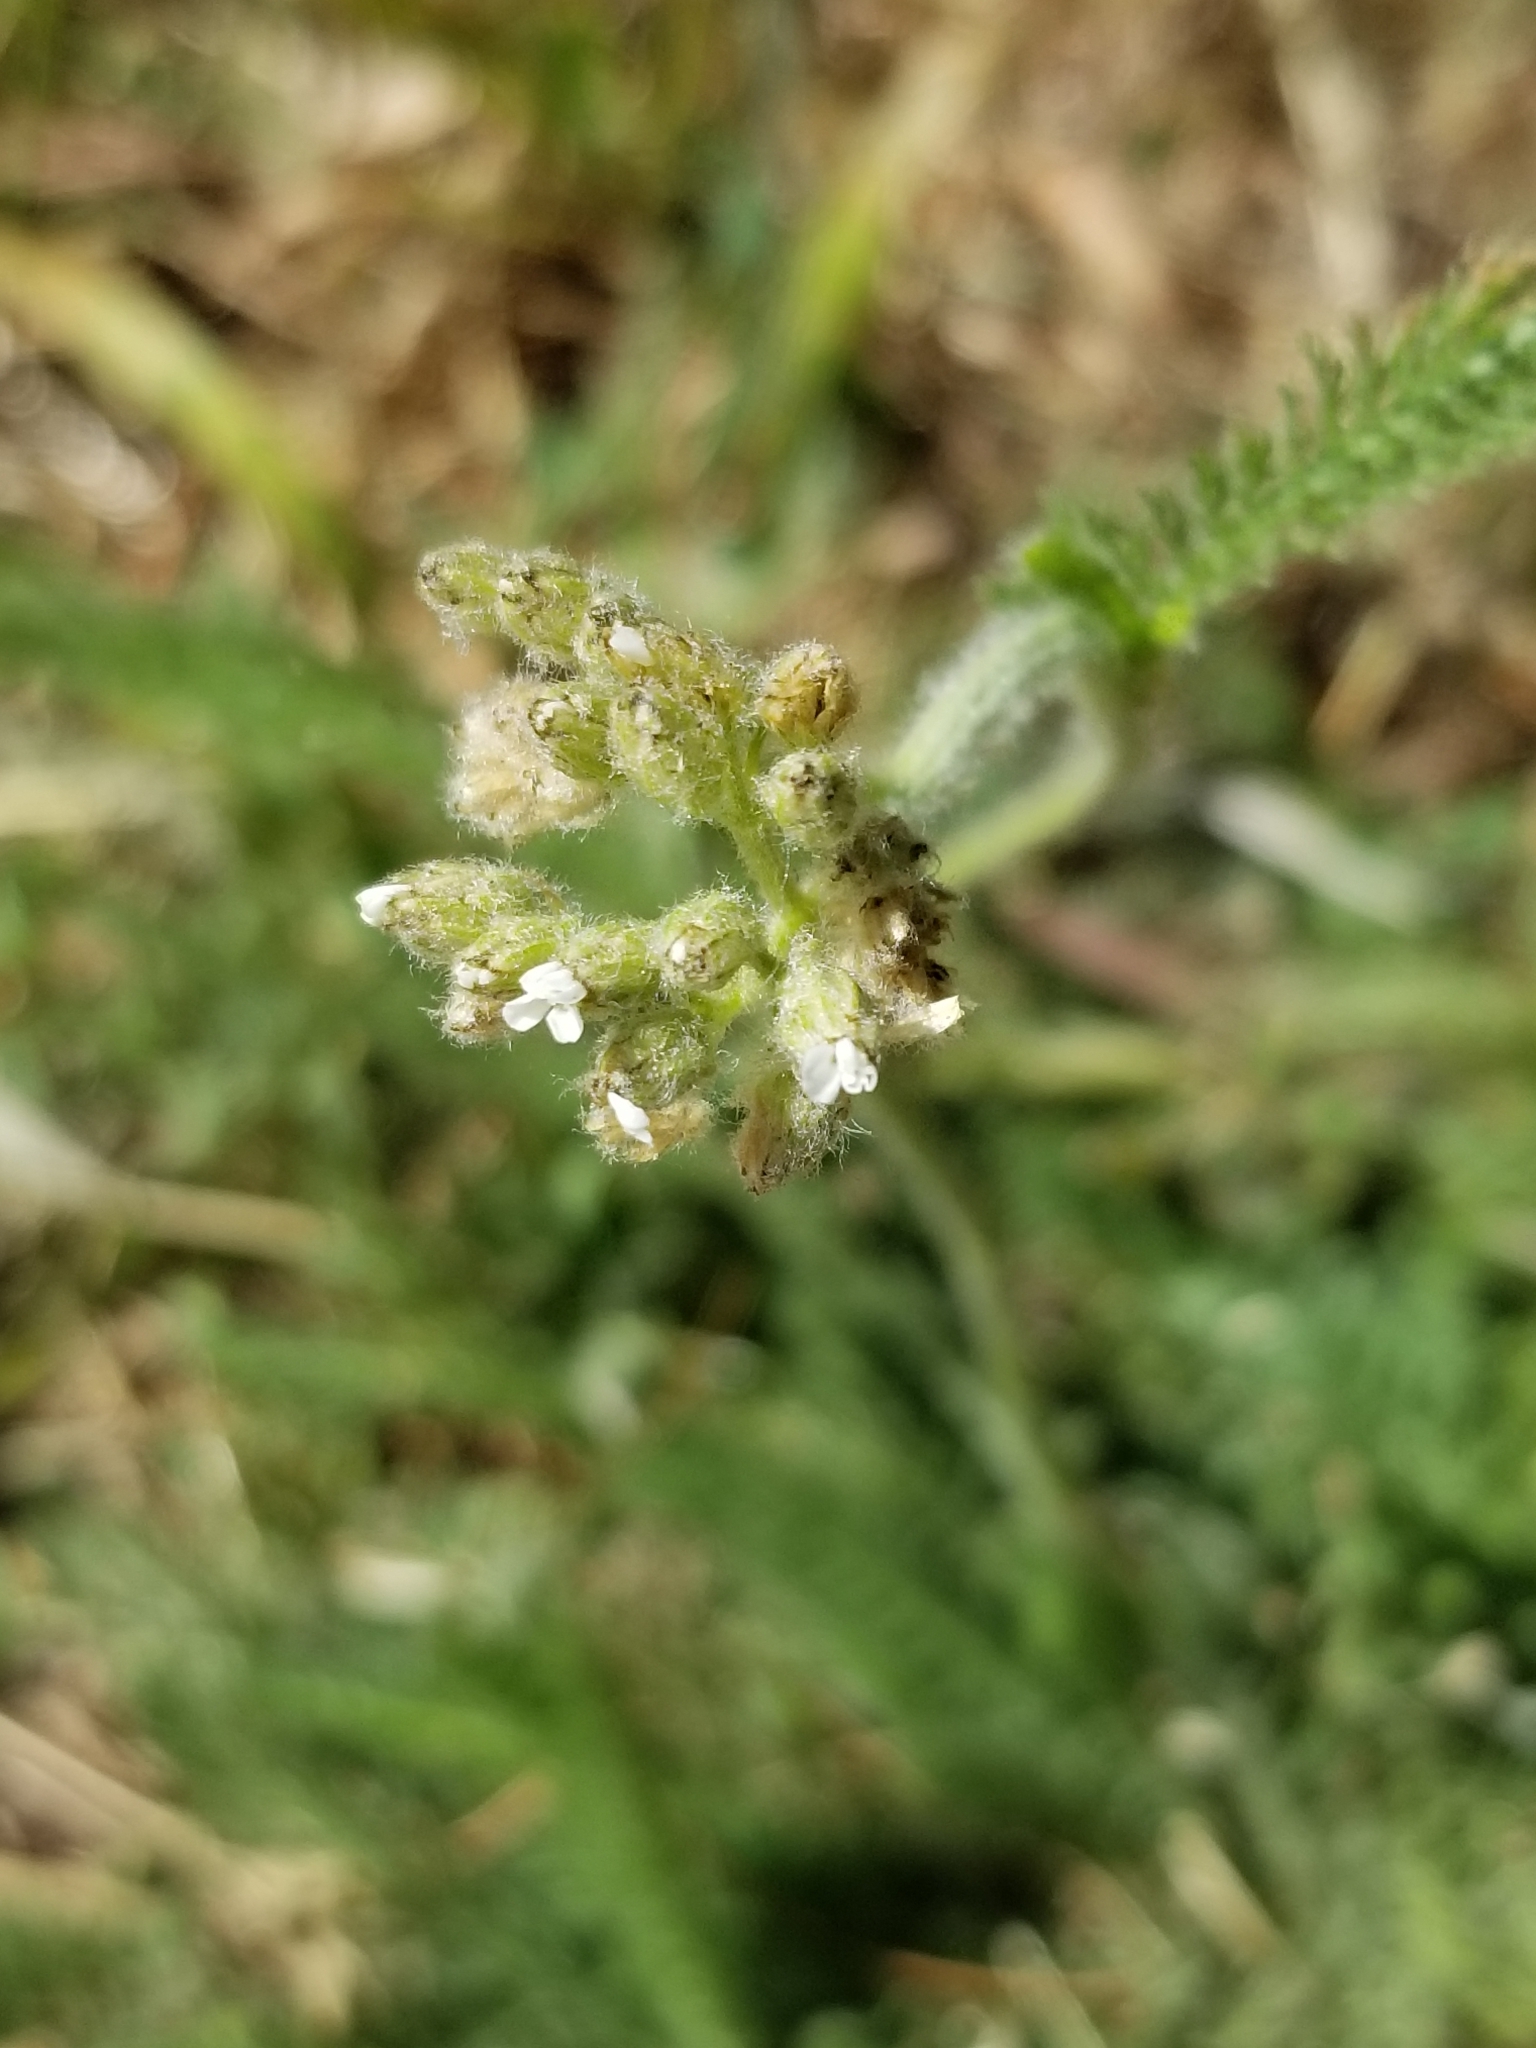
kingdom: Plantae
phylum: Tracheophyta
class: Magnoliopsida
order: Asterales
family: Asteraceae
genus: Achillea
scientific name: Achillea millefolium
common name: Yarrow
